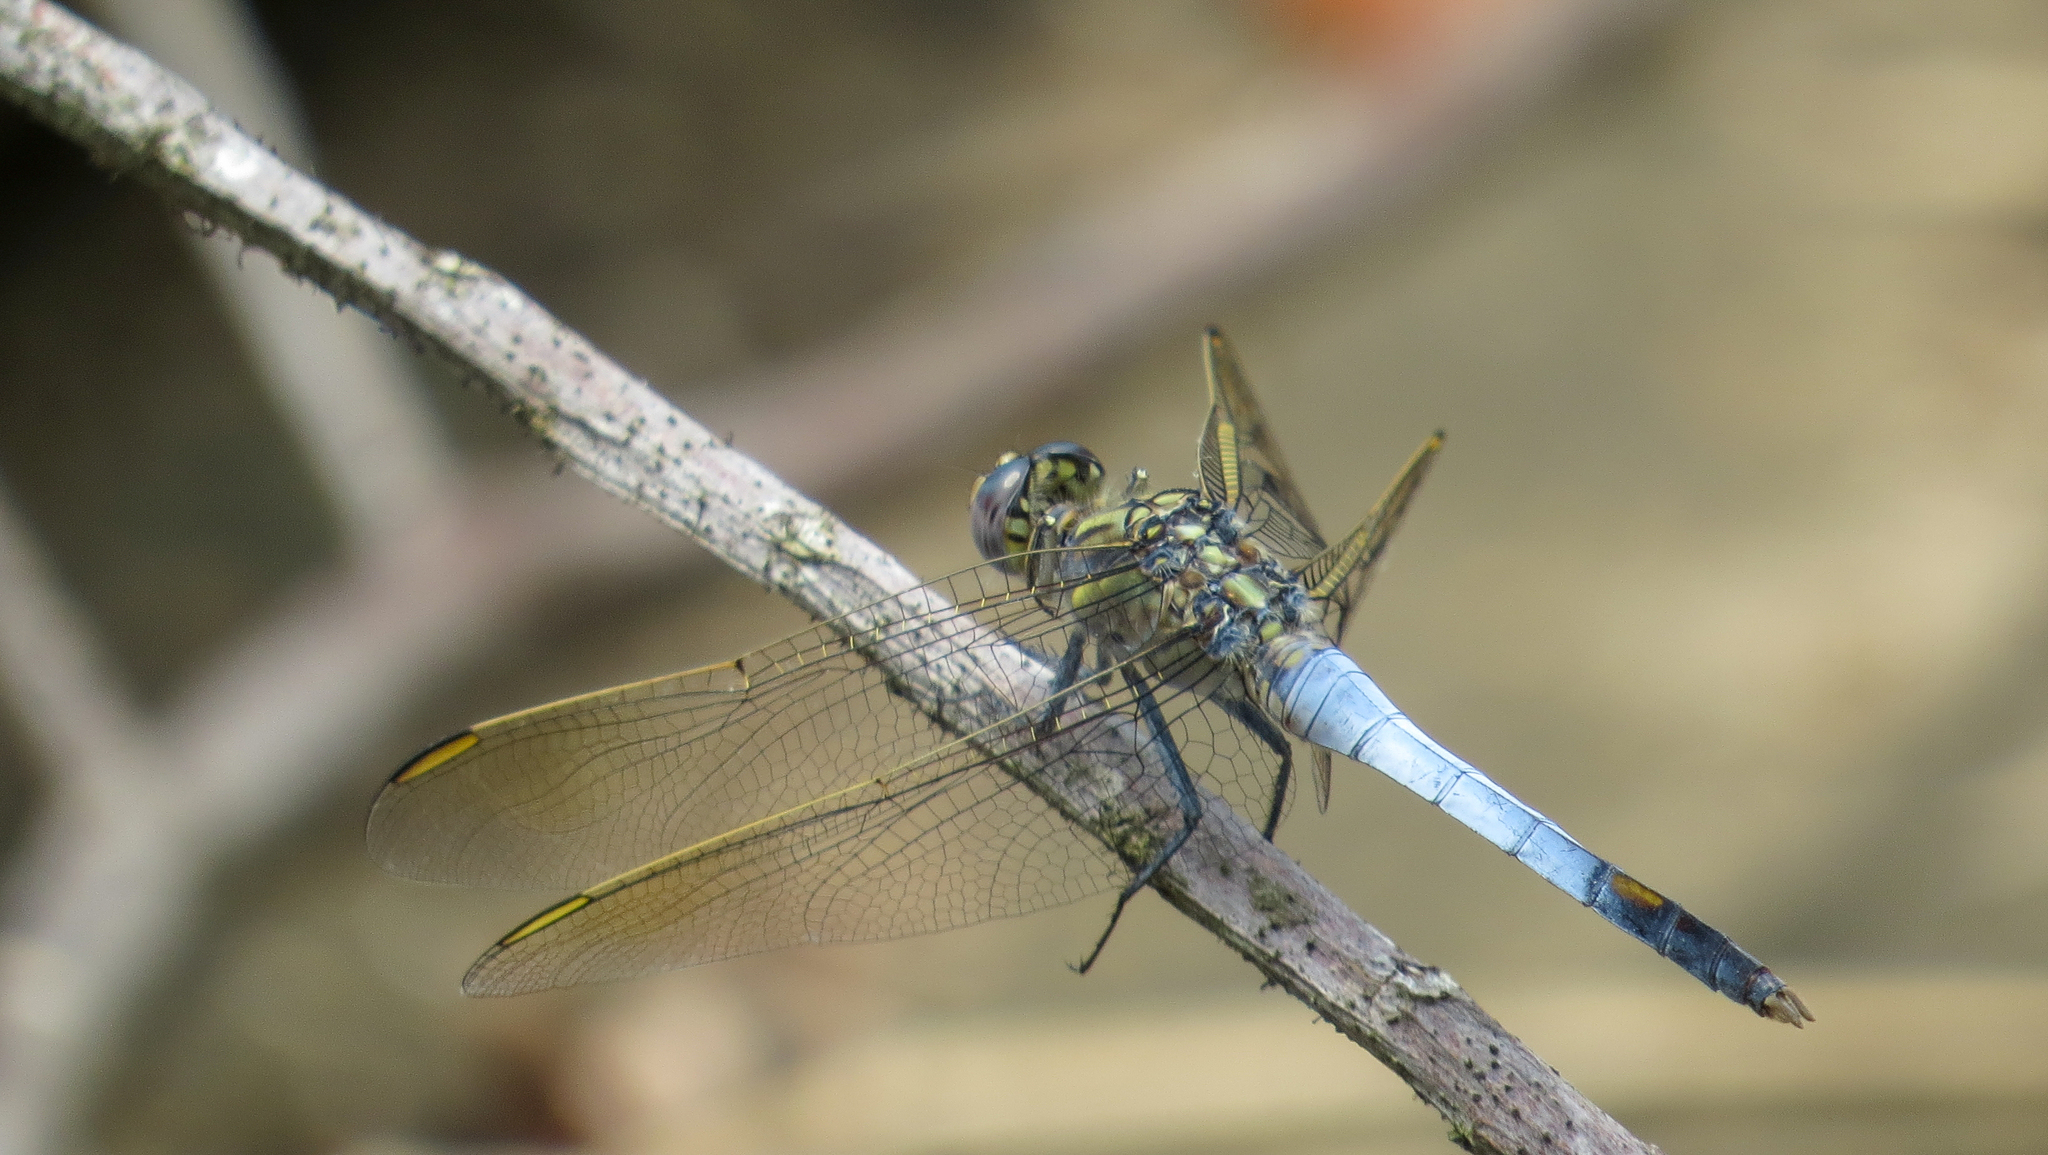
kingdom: Animalia
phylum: Arthropoda
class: Insecta
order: Odonata
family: Libellulidae
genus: Orthetrum
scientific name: Orthetrum caledonicum
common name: Blue skimmer
